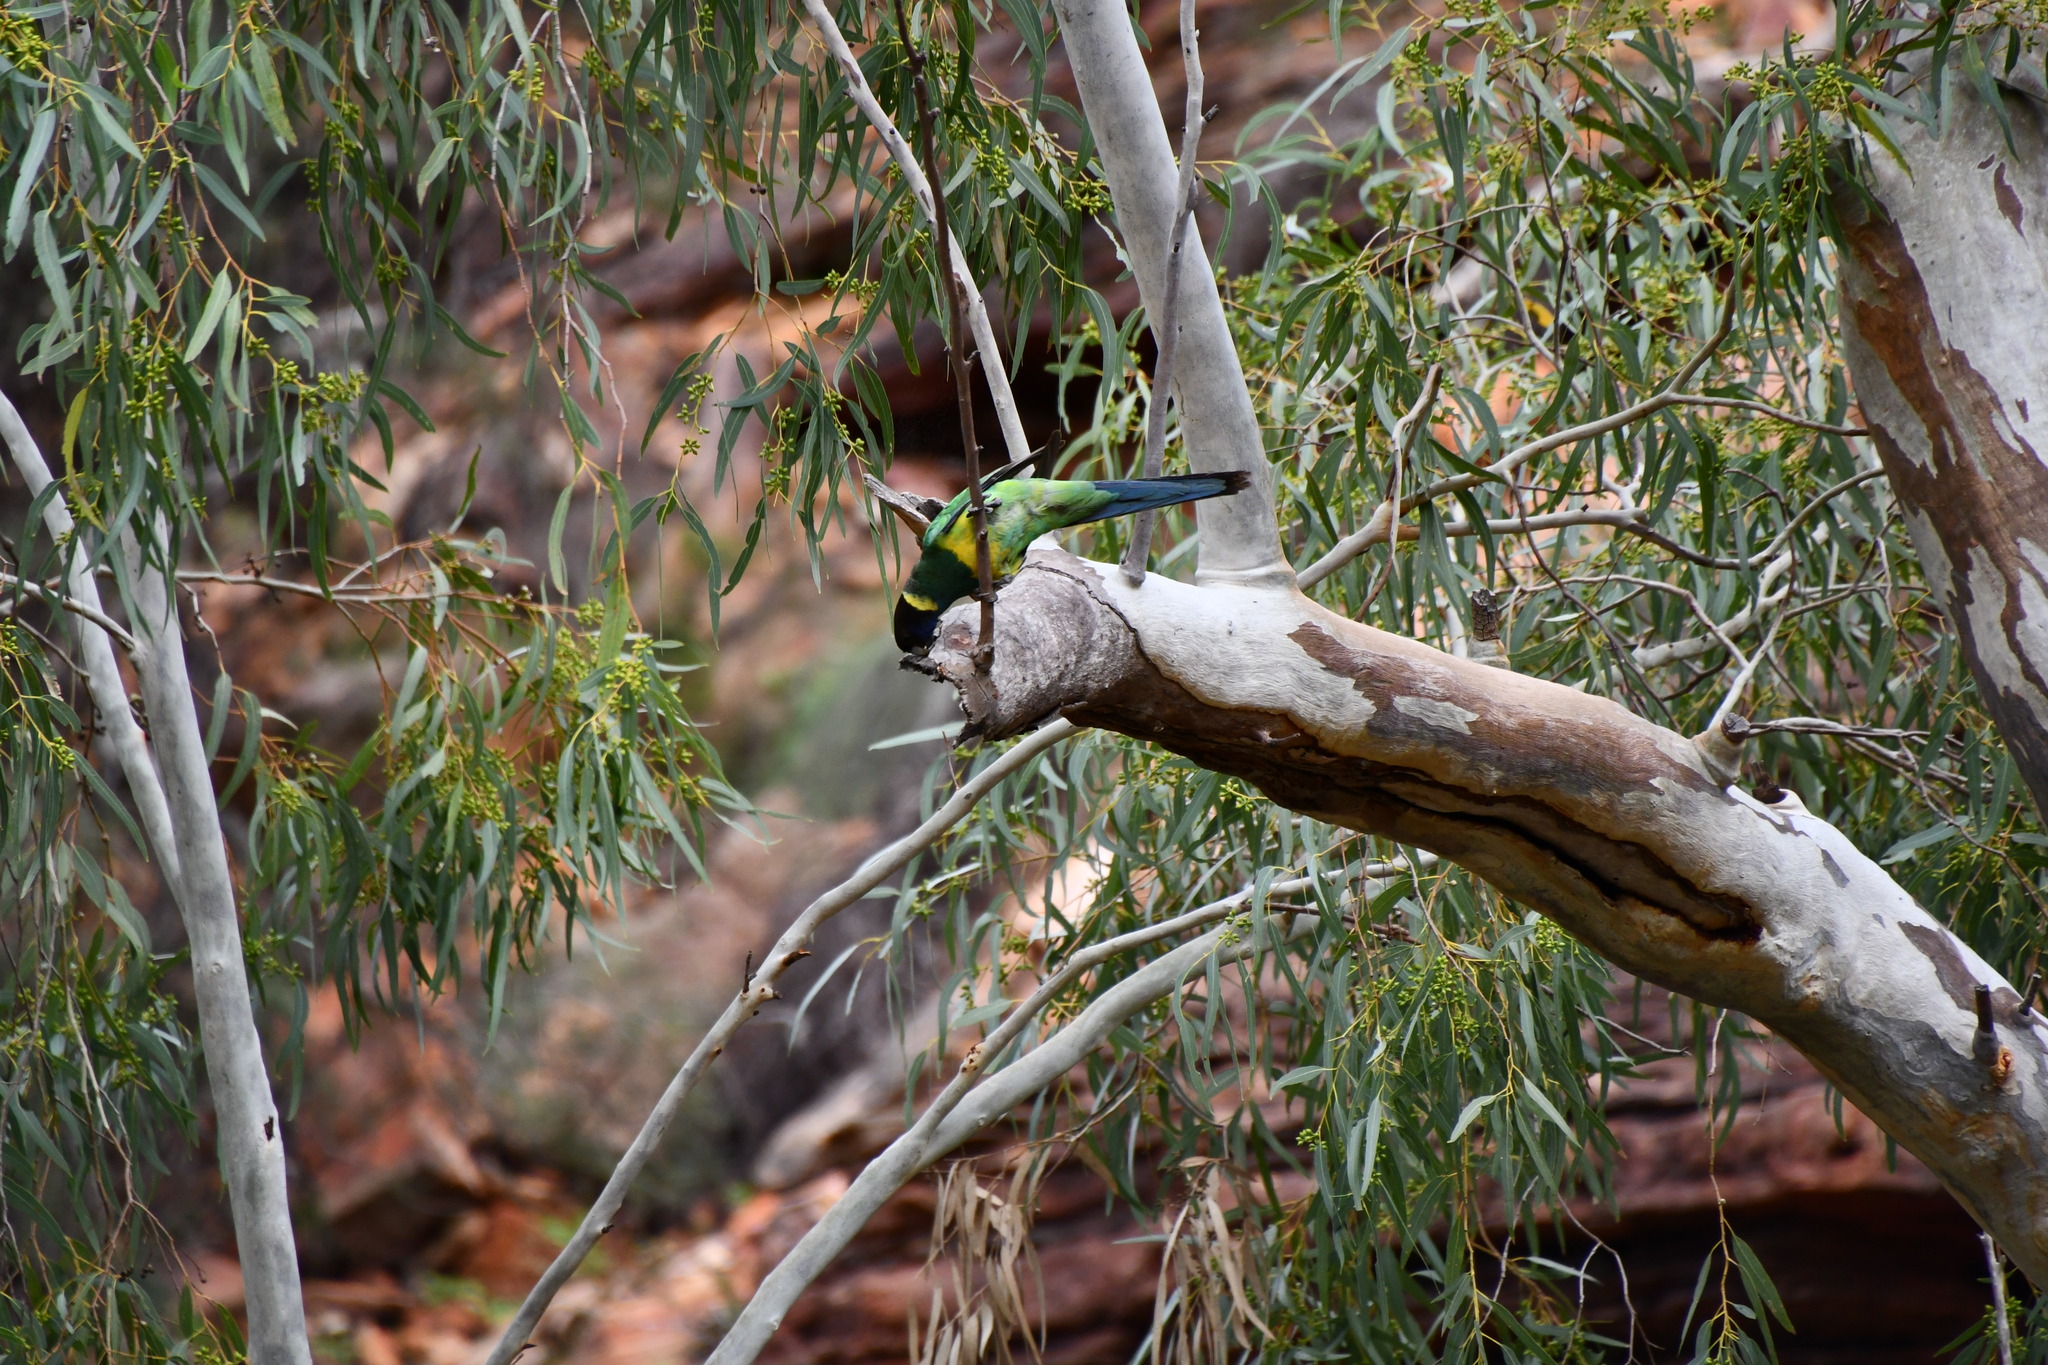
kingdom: Animalia
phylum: Chordata
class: Aves
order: Psittaciformes
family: Psittacidae
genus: Barnardius
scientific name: Barnardius zonarius
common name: Australian ringneck
